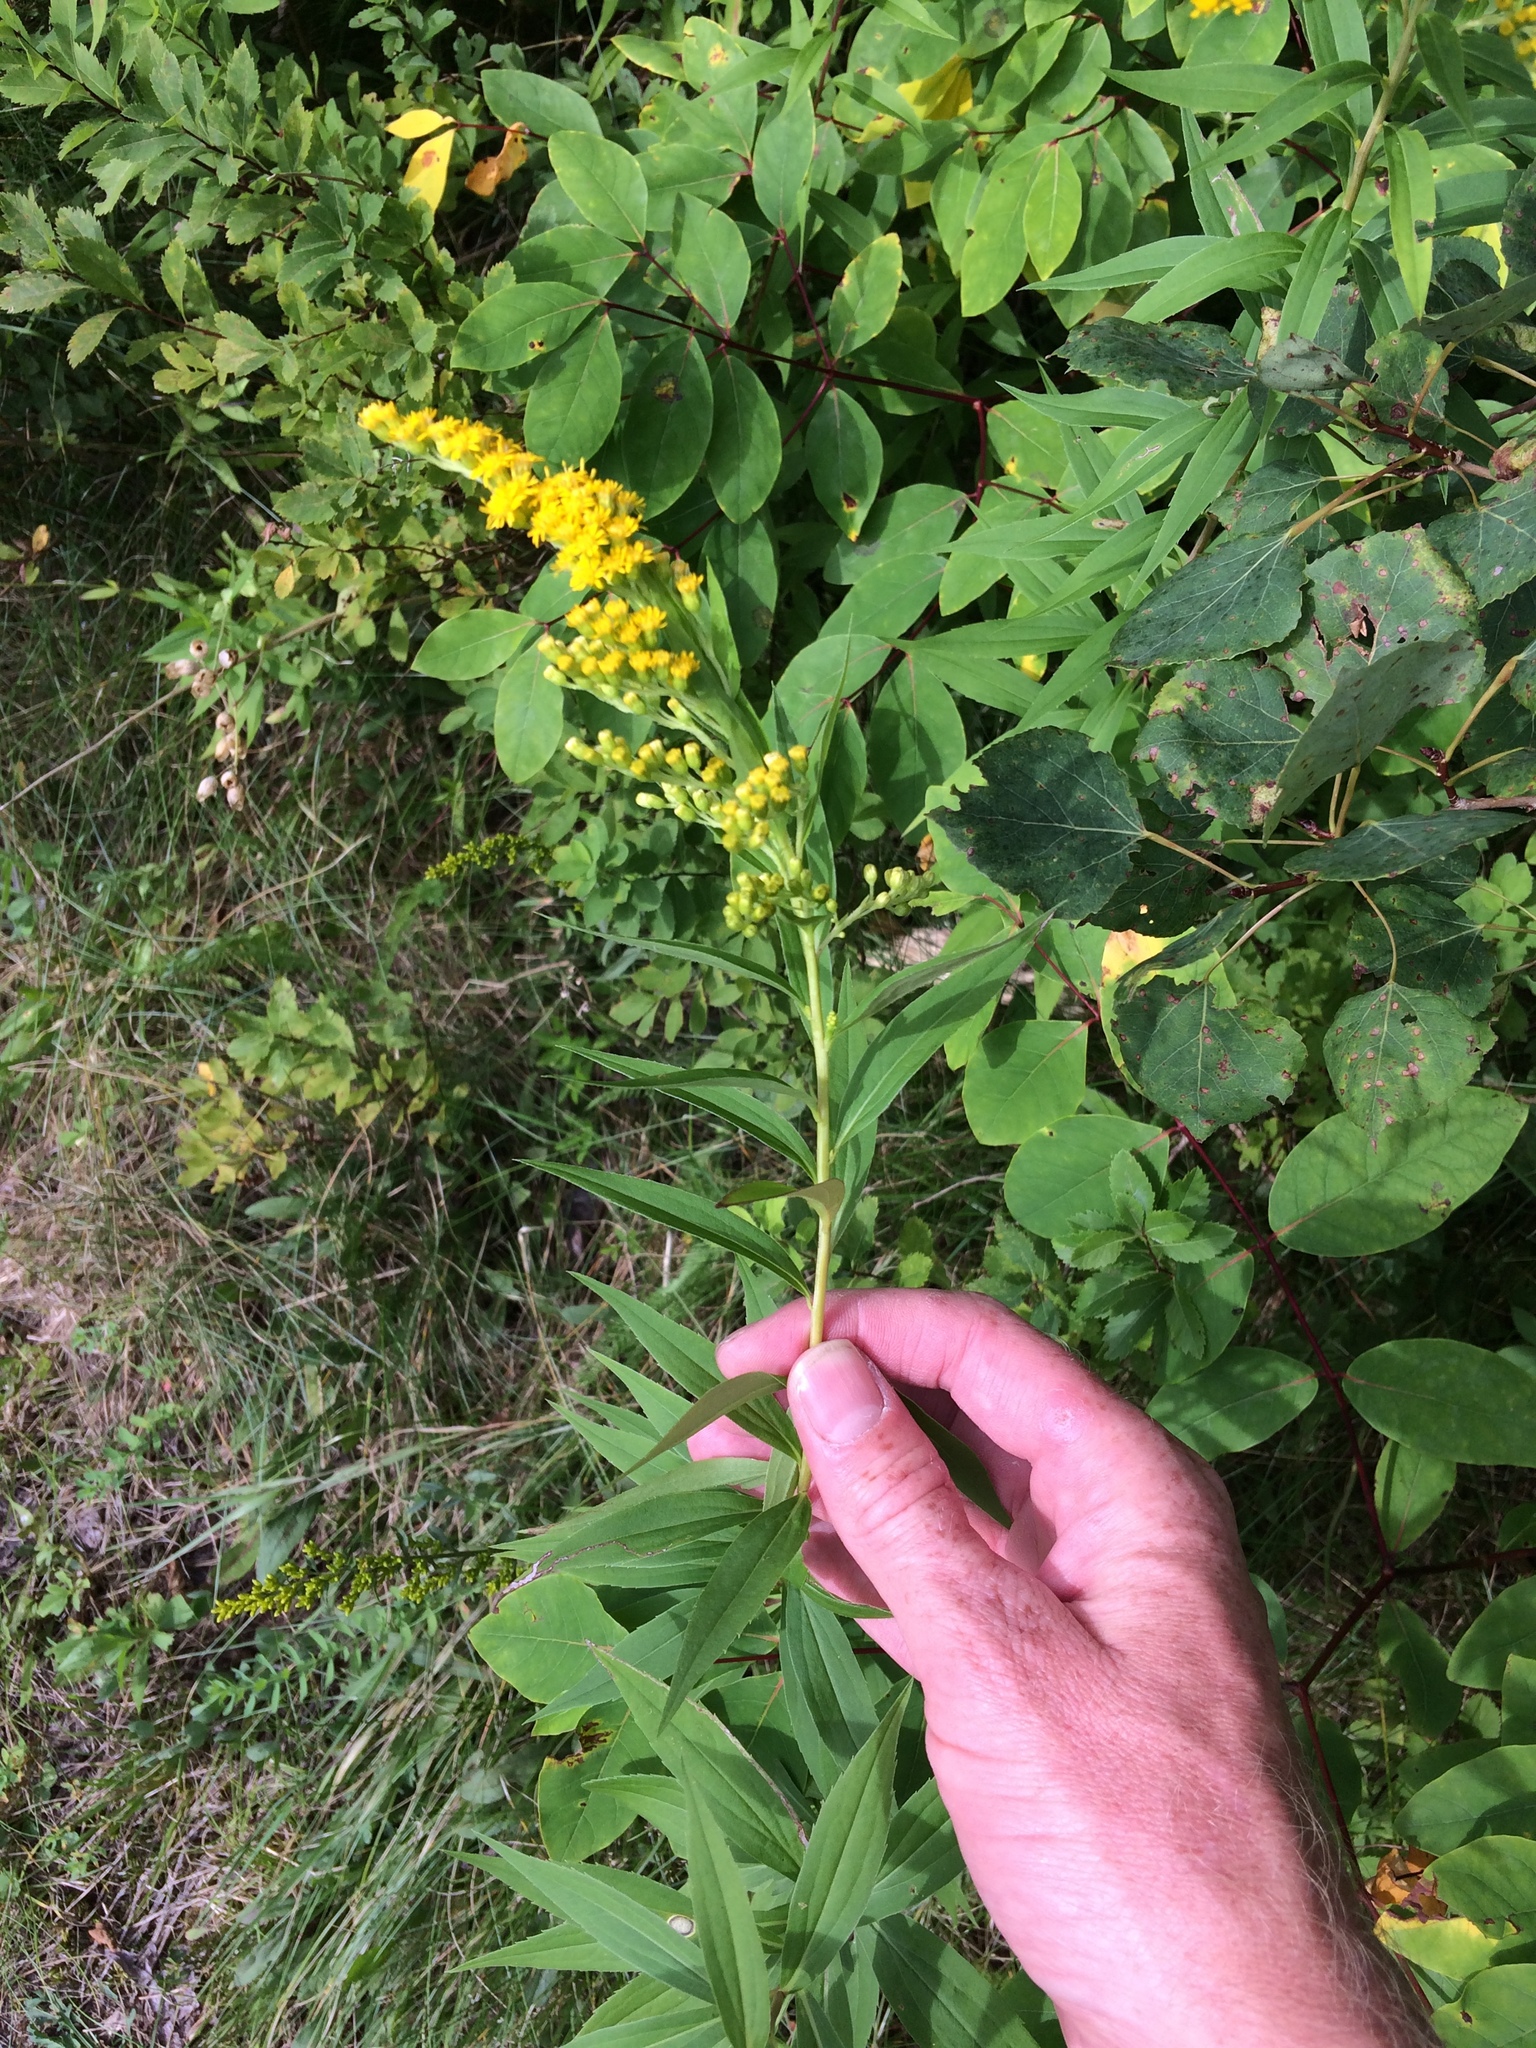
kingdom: Plantae
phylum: Tracheophyta
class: Magnoliopsida
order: Asterales
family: Asteraceae
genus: Solidago
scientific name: Solidago gigantea
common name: Giant goldenrod
